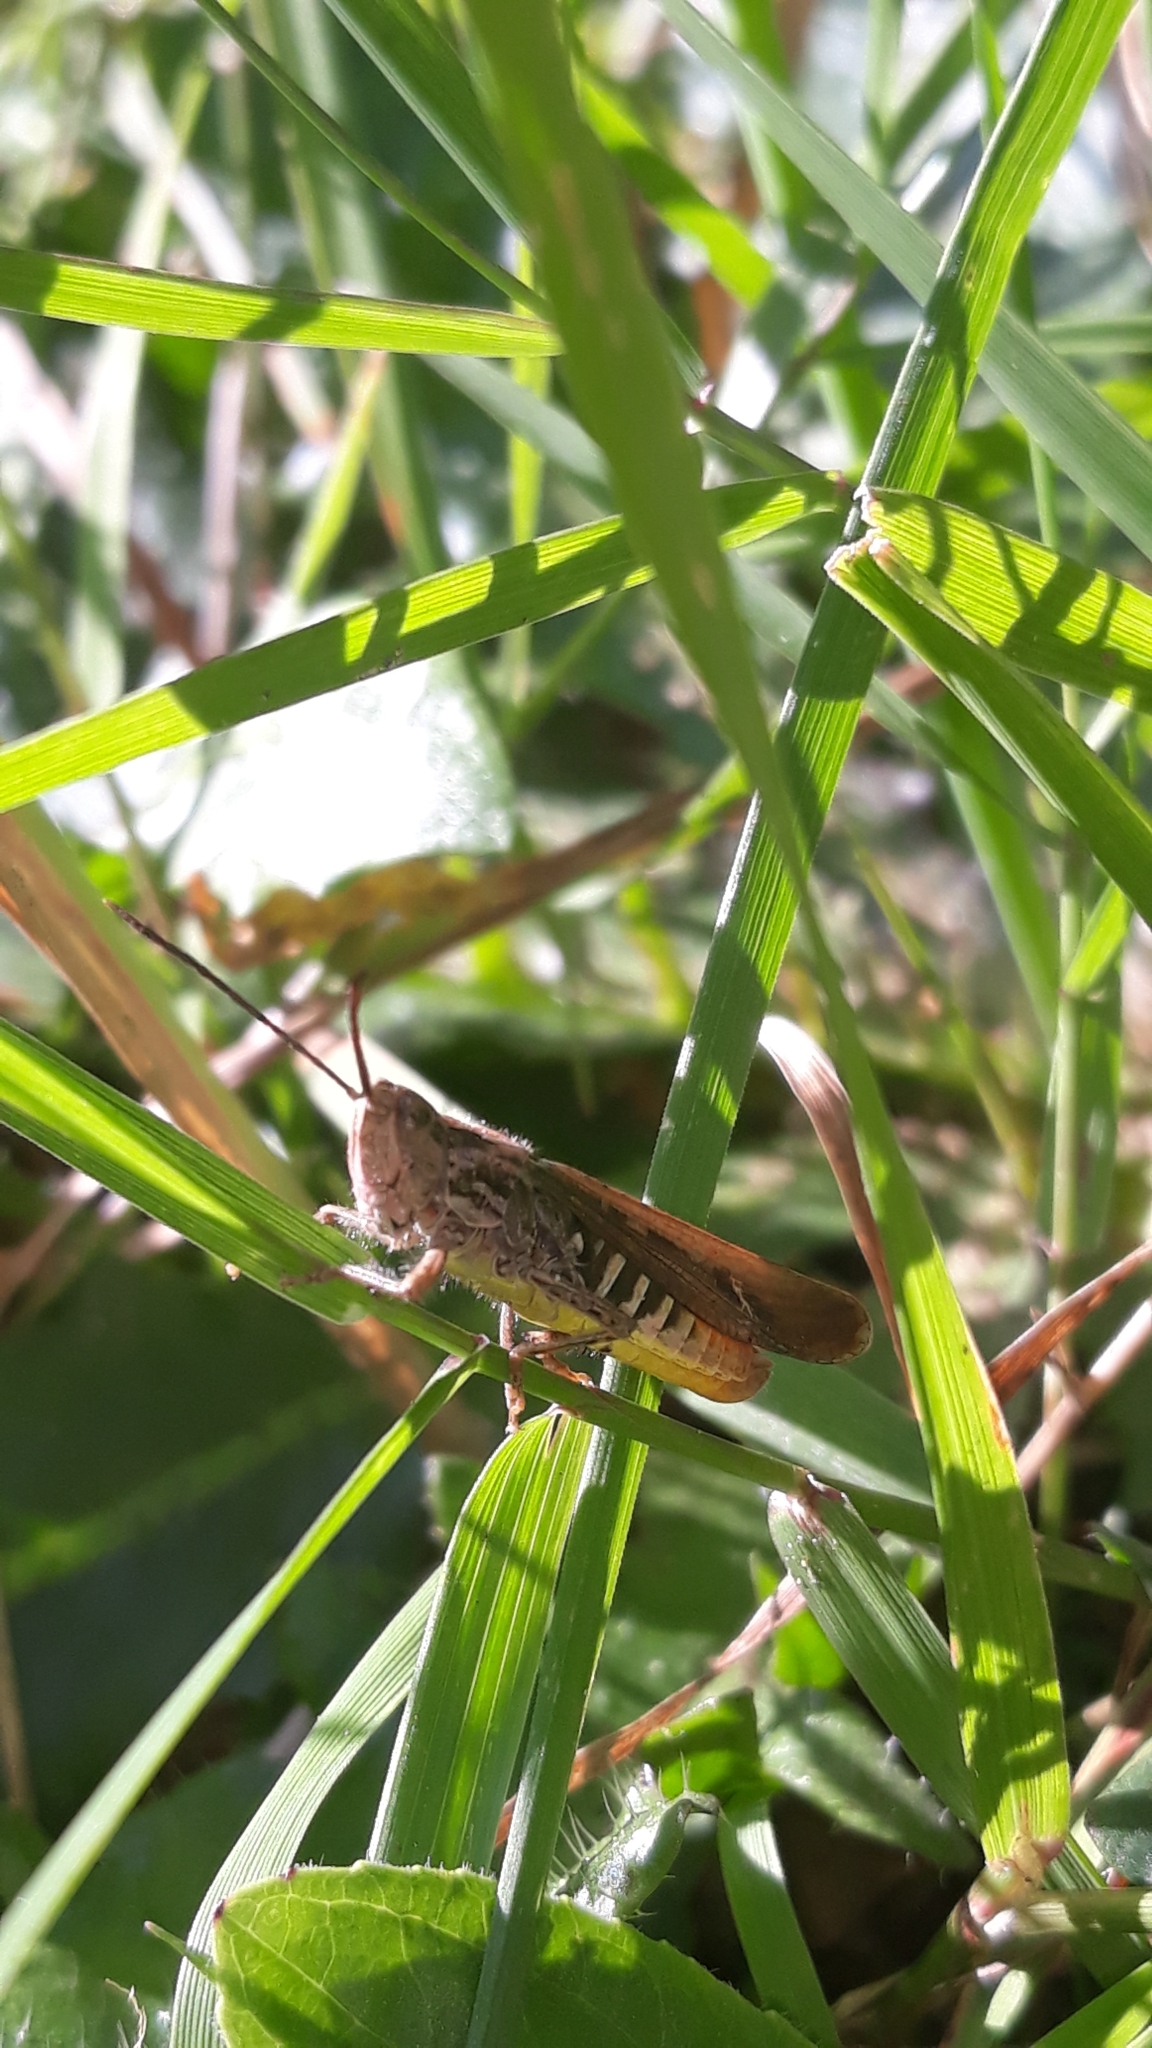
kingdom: Animalia
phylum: Arthropoda
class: Insecta
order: Orthoptera
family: Acrididae
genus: Chorthippus
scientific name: Chorthippus brunneus
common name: Field grasshopper
